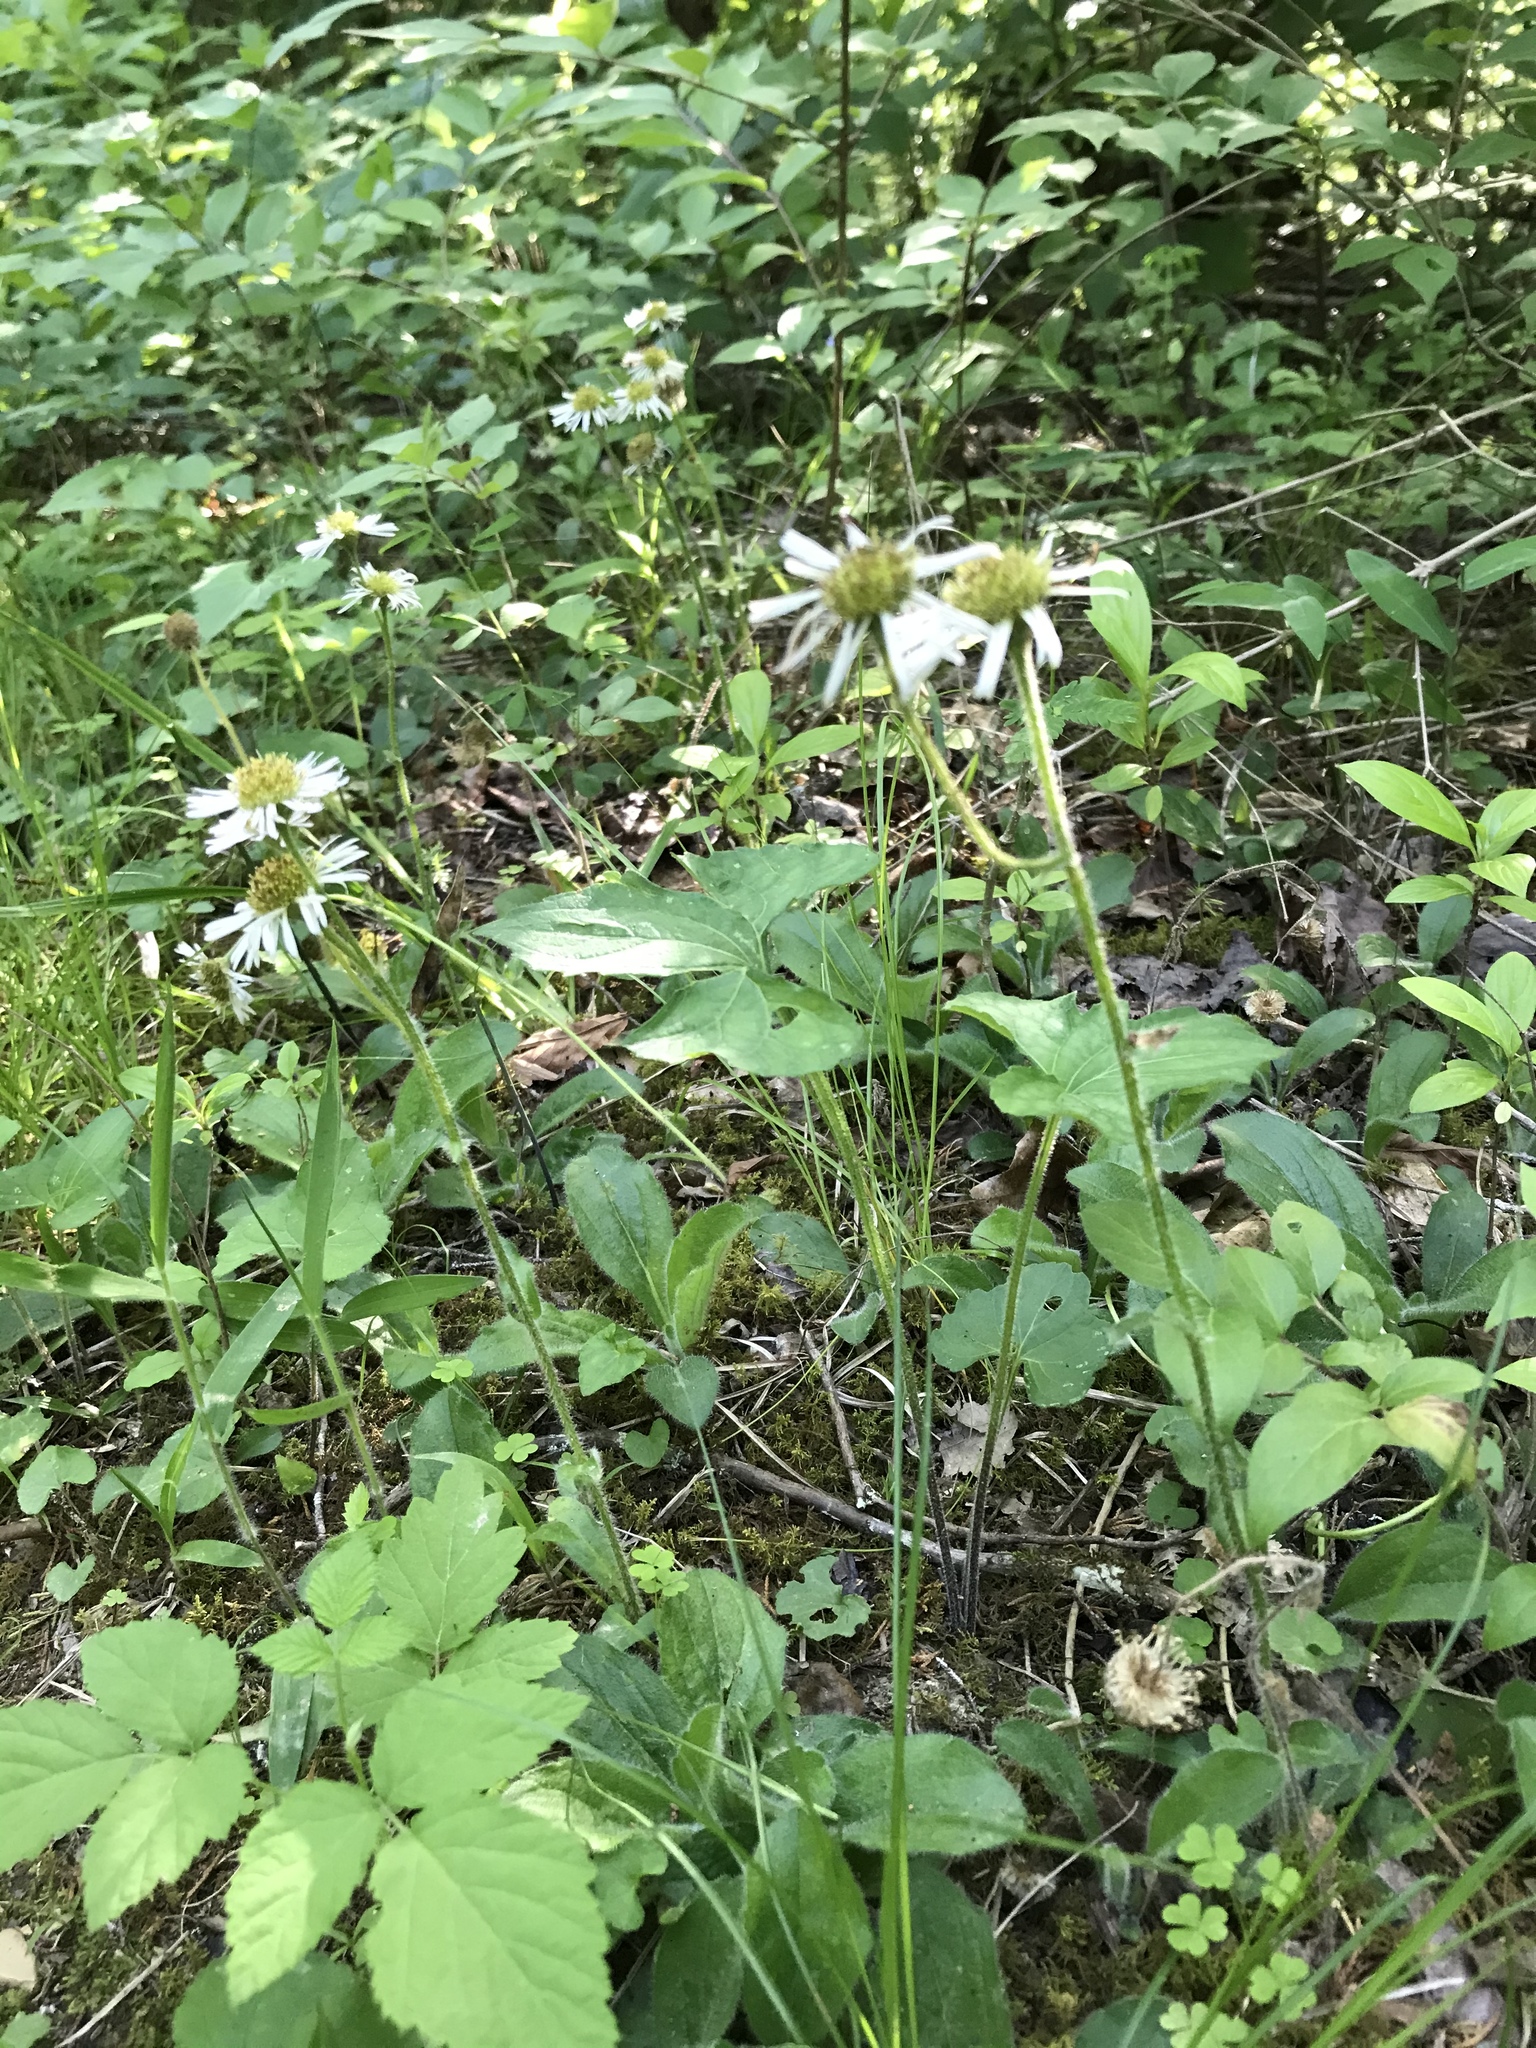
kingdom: Plantae
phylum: Tracheophyta
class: Magnoliopsida
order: Asterales
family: Asteraceae
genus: Erigeron
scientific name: Erigeron pulchellus
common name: Hairy fleabane
